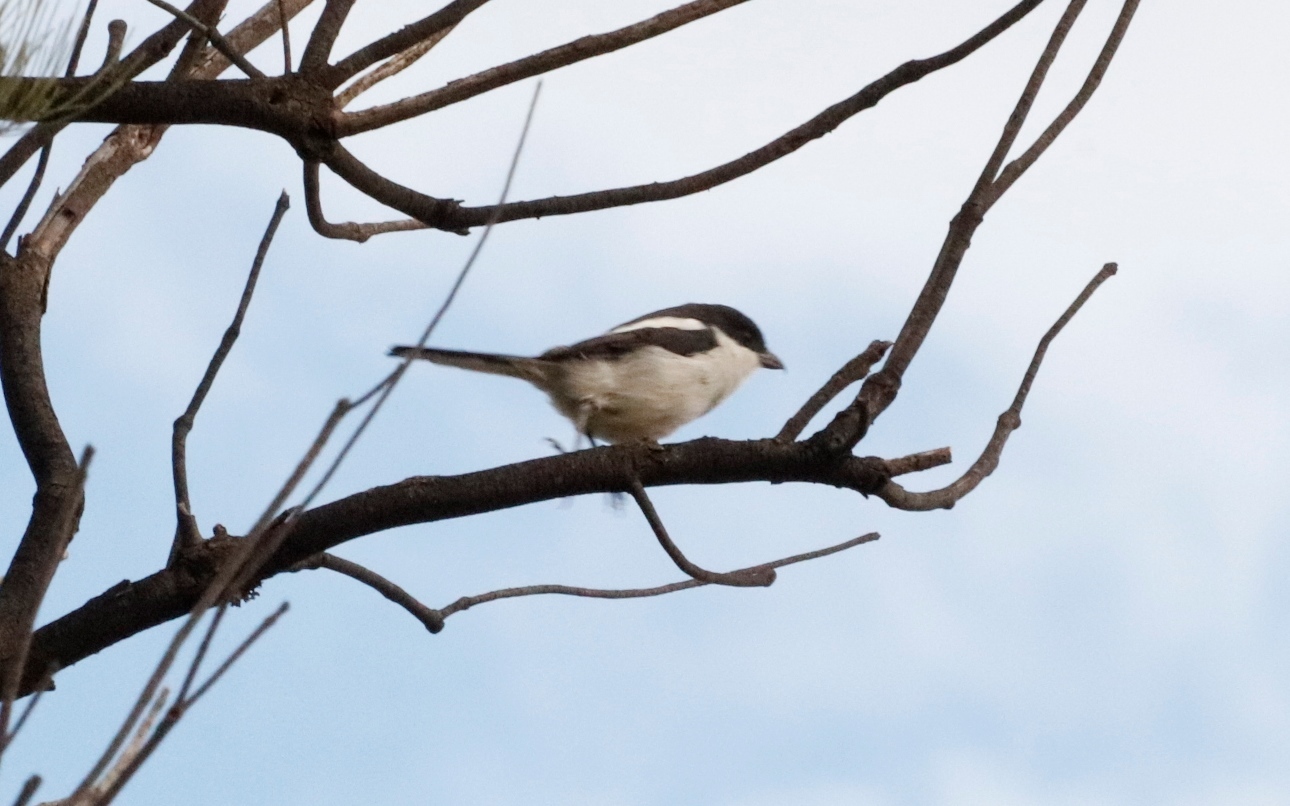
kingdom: Animalia
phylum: Chordata
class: Aves
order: Passeriformes
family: Laniidae
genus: Lanius
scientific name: Lanius collaris
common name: Southern fiscal
